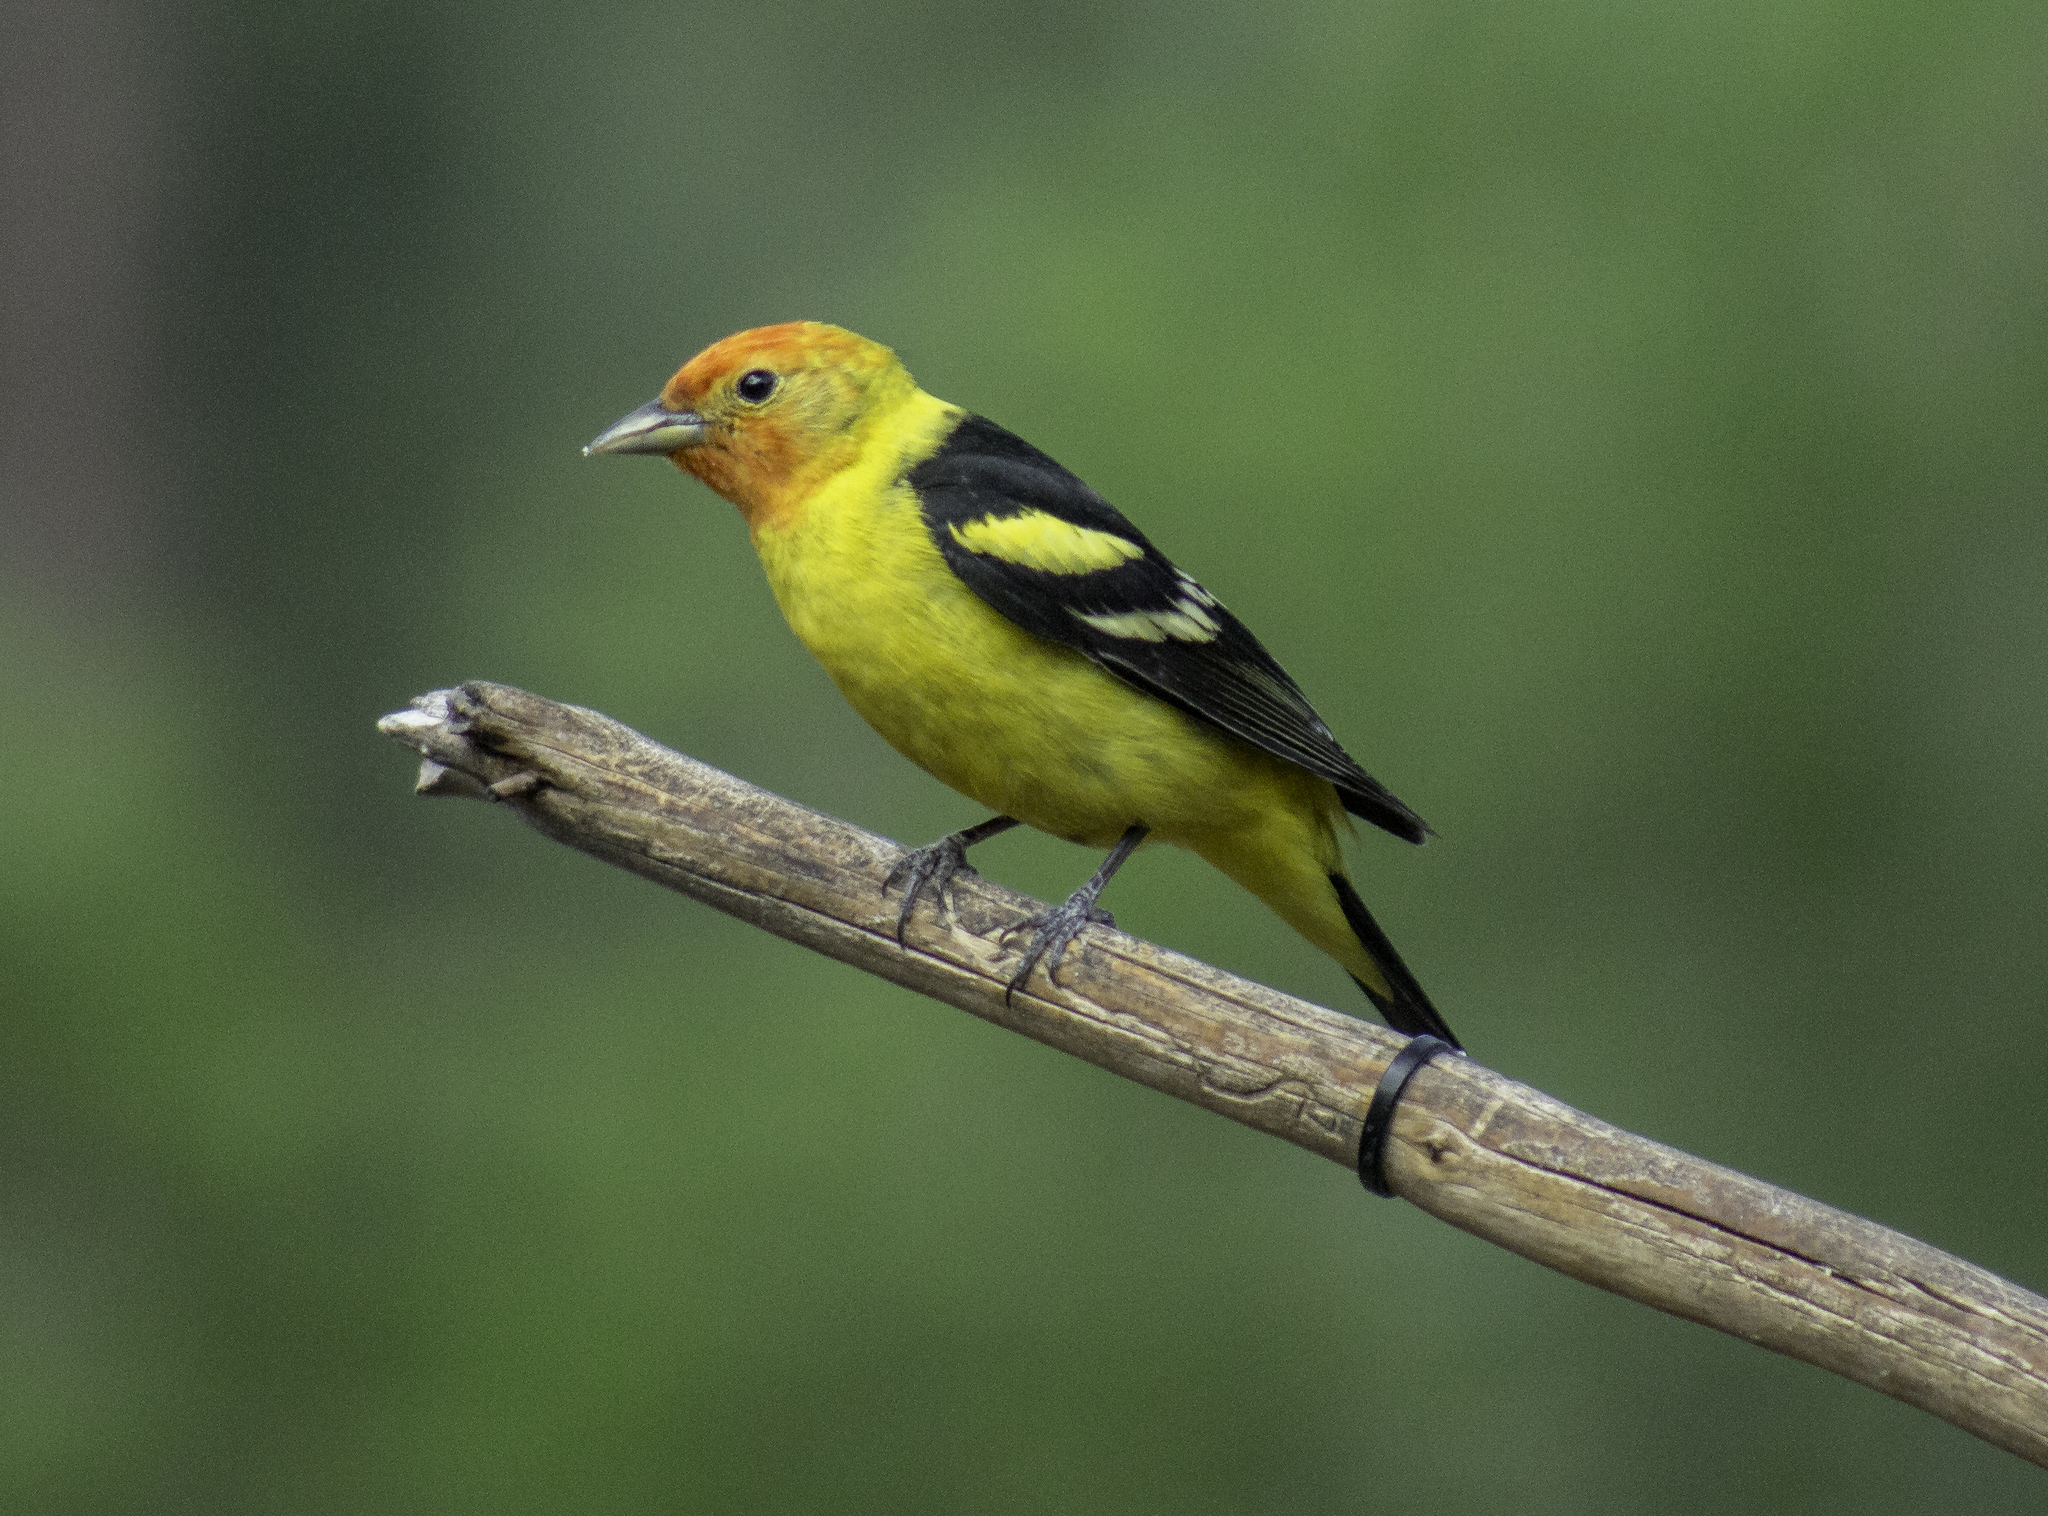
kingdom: Animalia
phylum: Chordata
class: Aves
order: Passeriformes
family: Cardinalidae
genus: Piranga
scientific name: Piranga ludoviciana
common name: Western tanager
